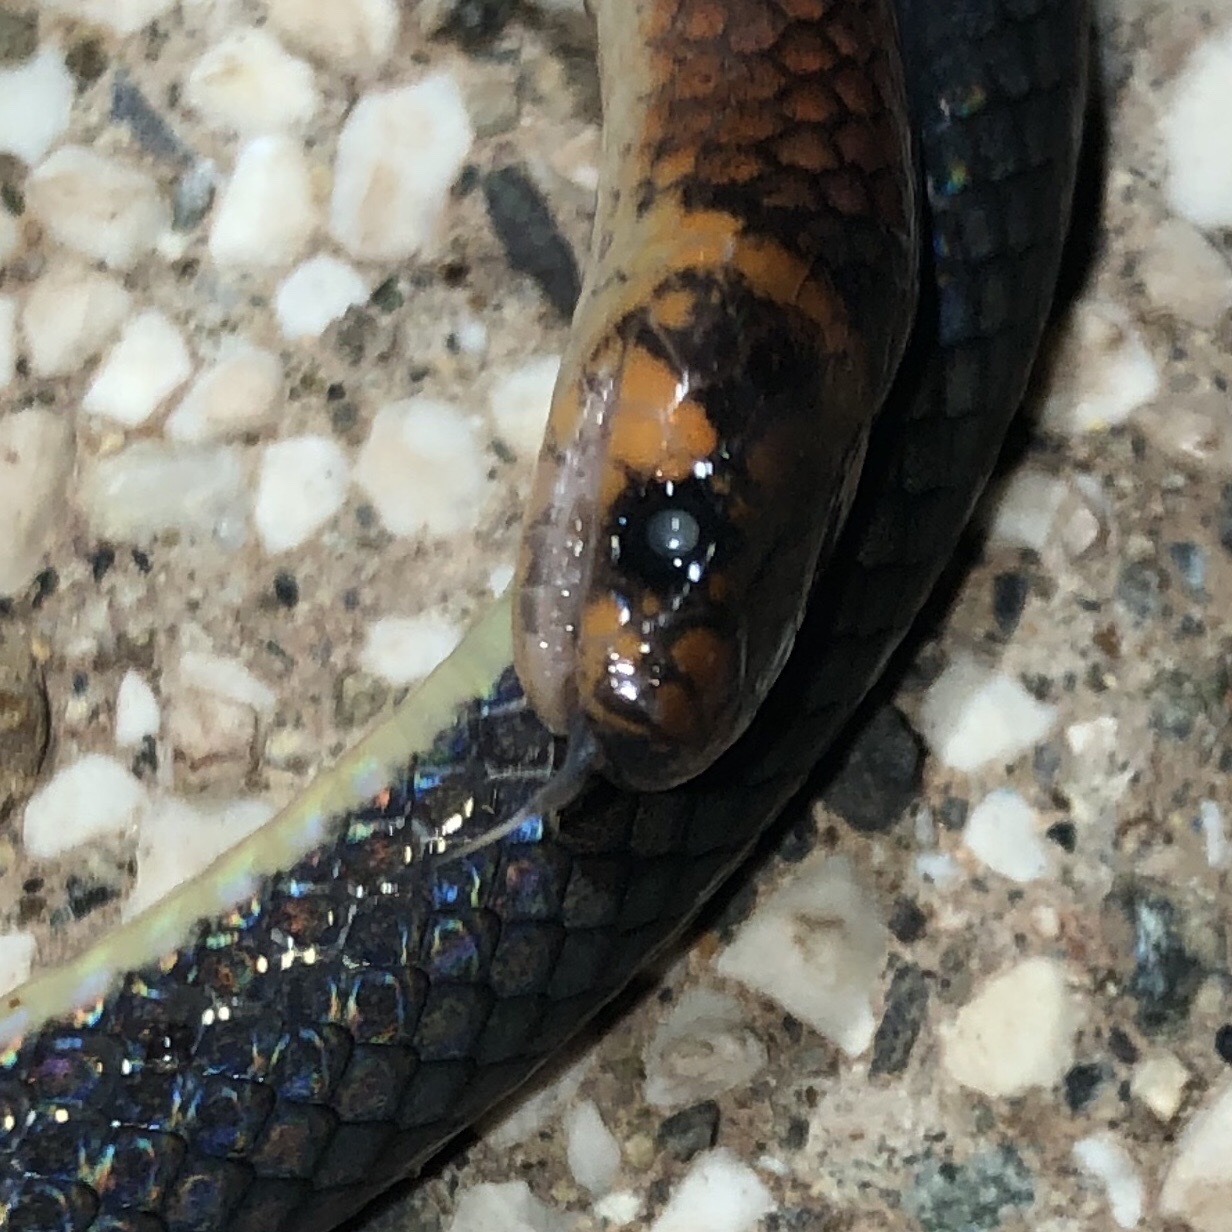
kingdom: Animalia
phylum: Chordata
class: Squamata
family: Colubridae
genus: Tantilla
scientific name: Tantilla alticola
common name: Boulenger's centipede snake
